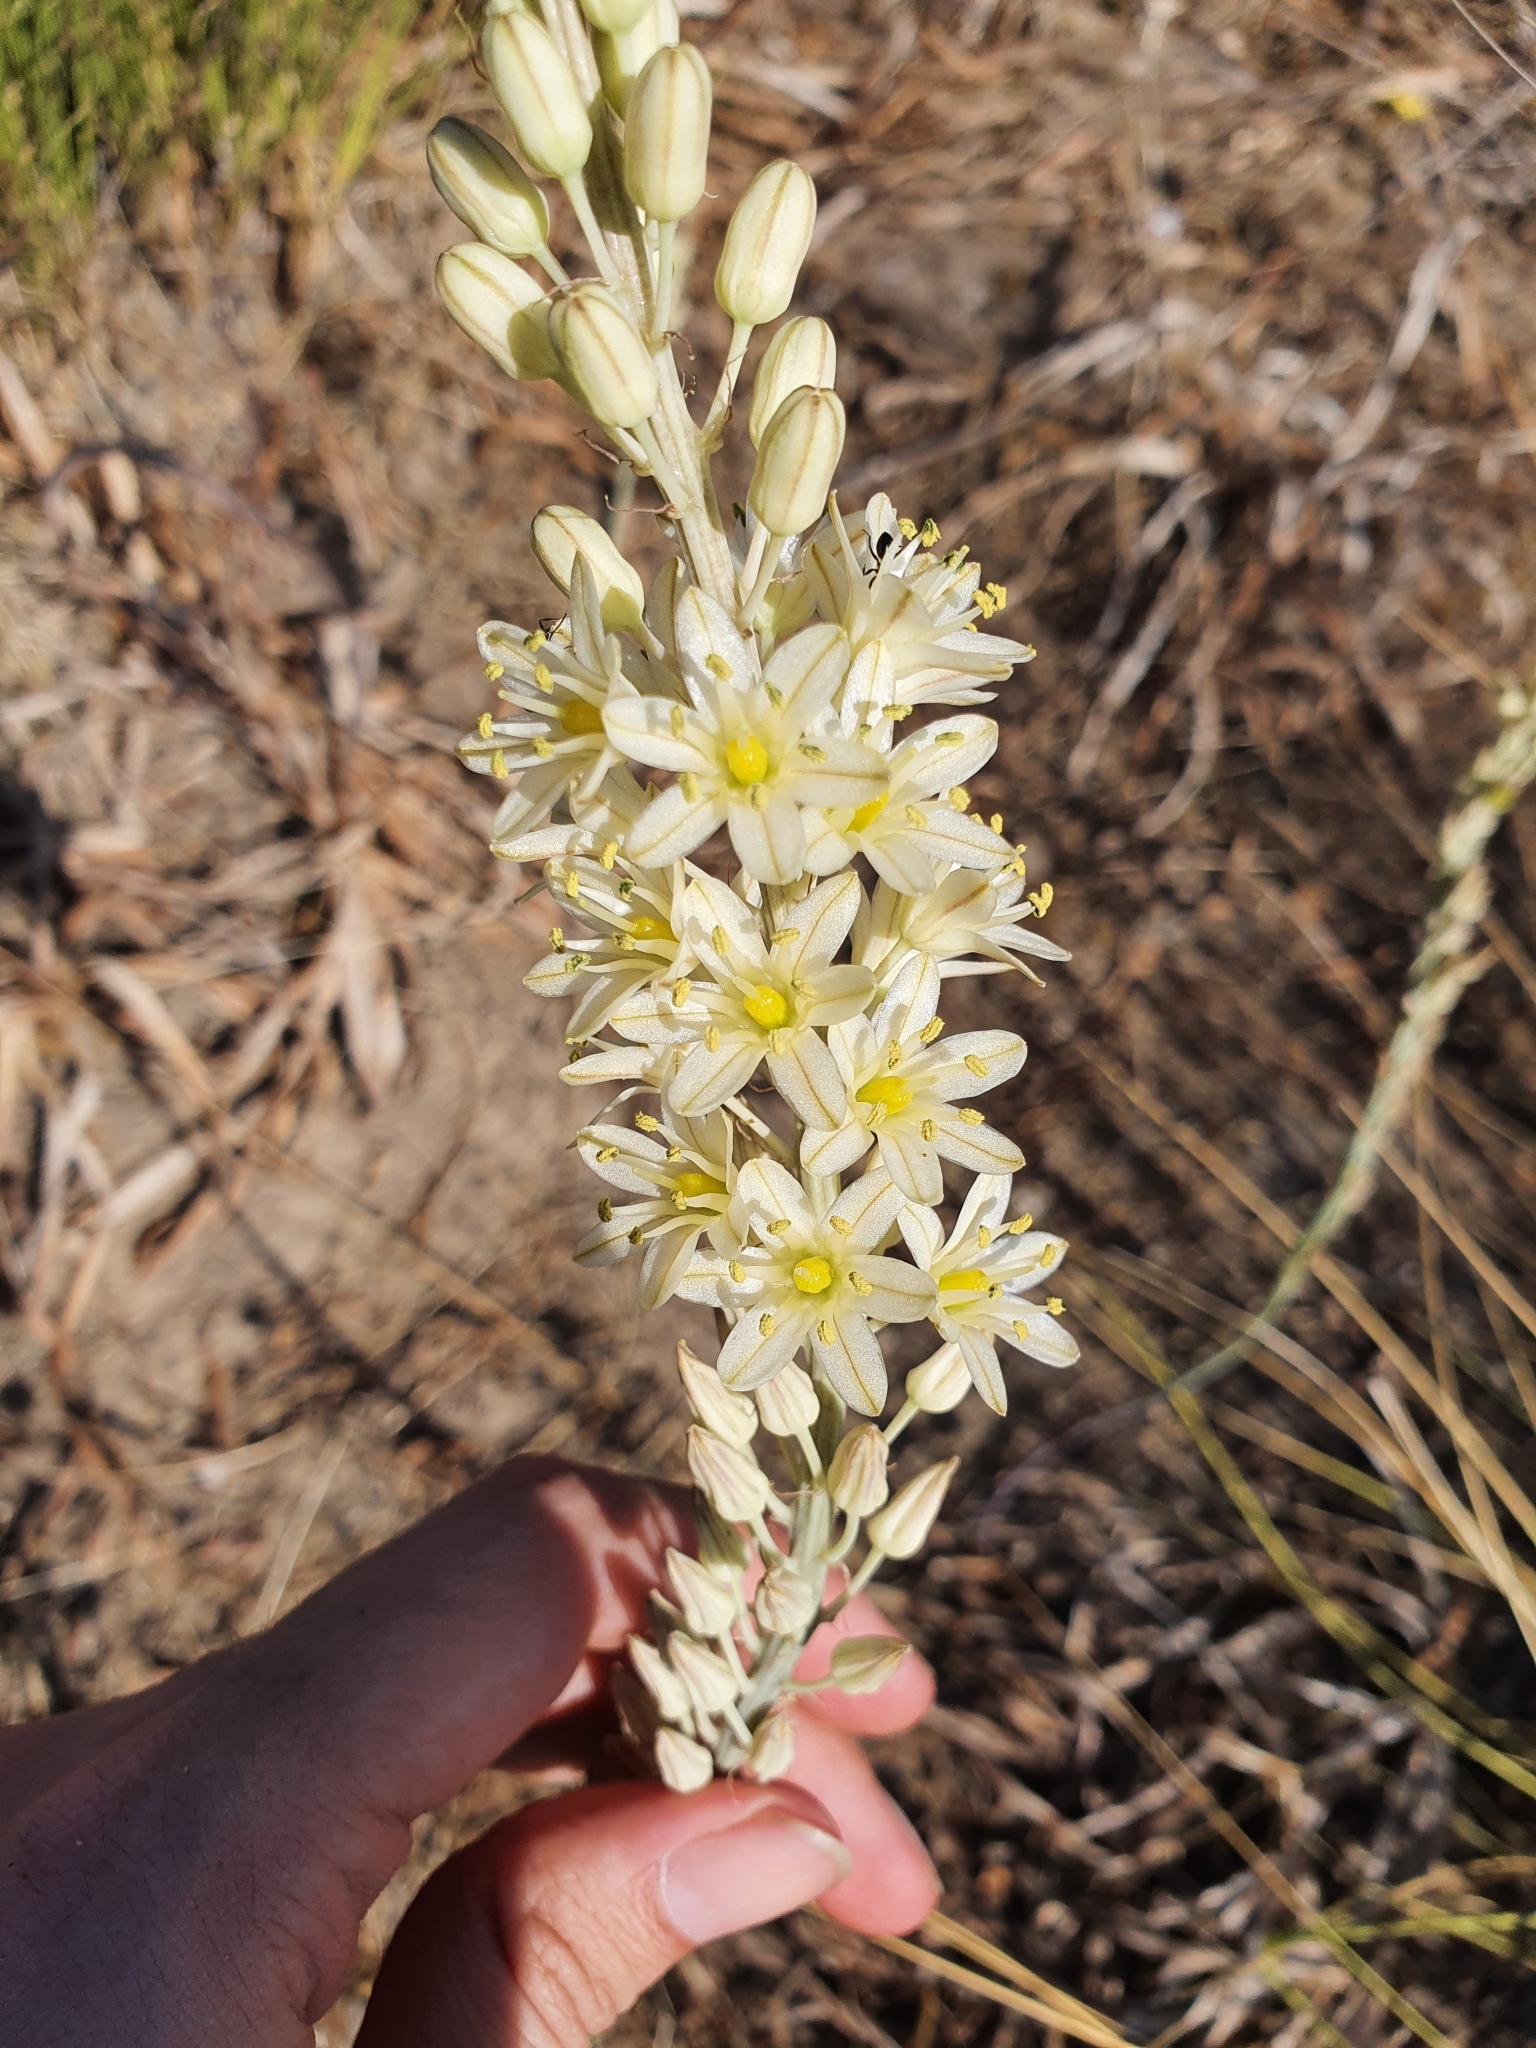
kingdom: Plantae
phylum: Tracheophyta
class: Liliopsida
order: Asparagales
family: Asparagaceae
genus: Drimia
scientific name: Drimia anthericoides
